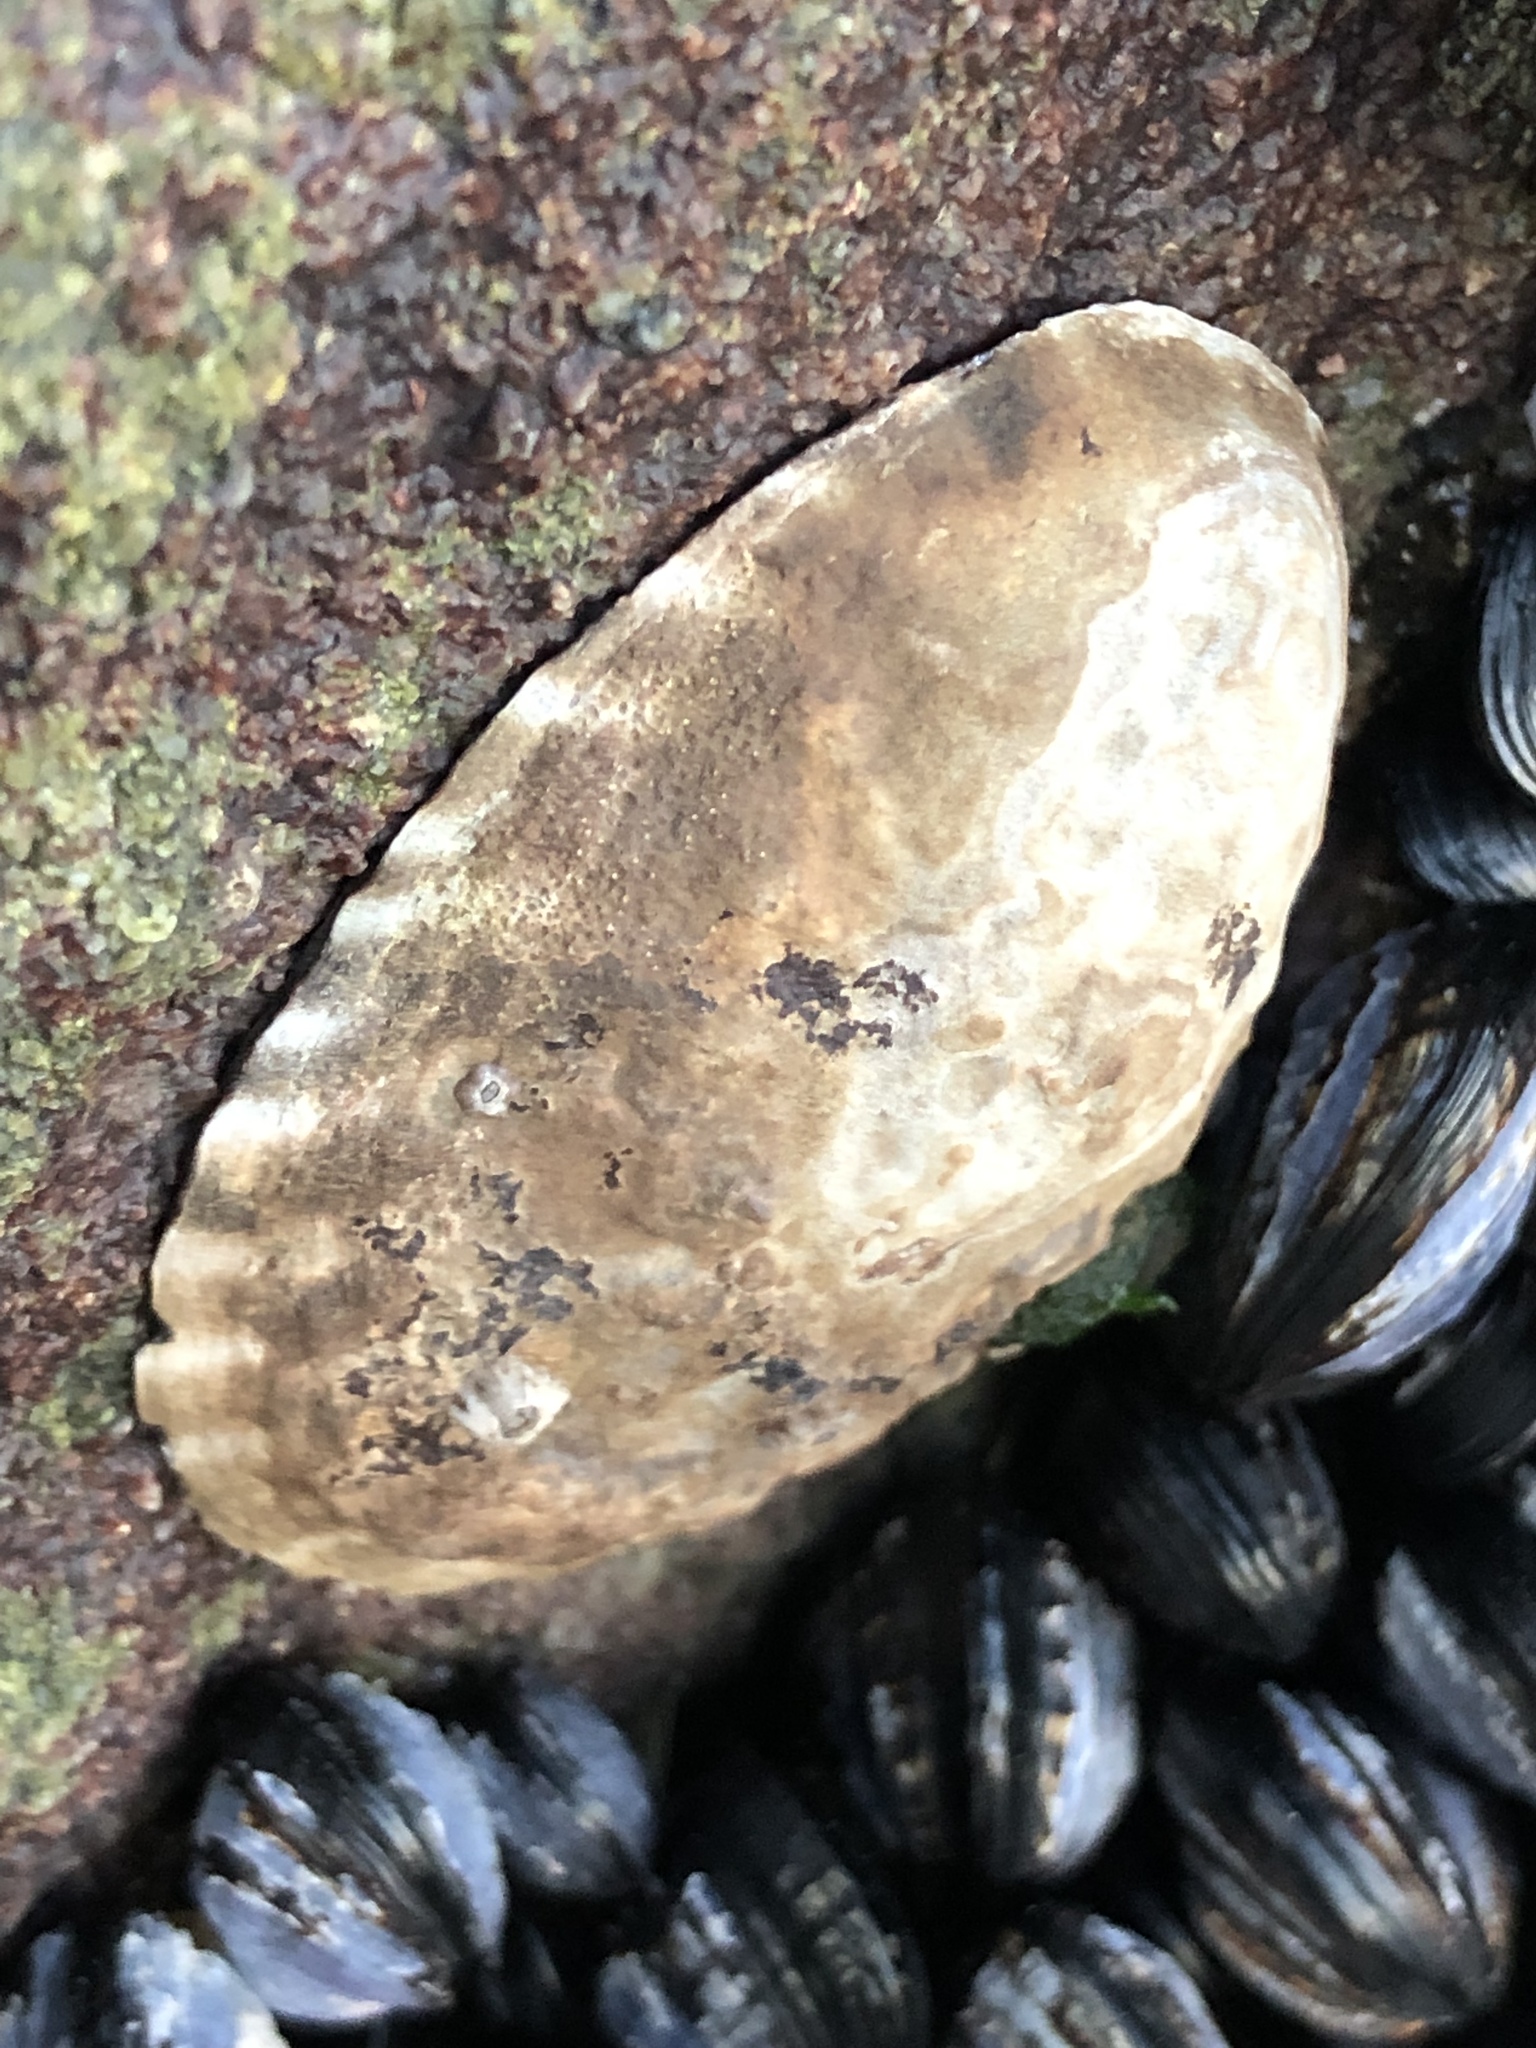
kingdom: Animalia
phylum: Mollusca
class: Gastropoda
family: Lottiidae
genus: Lottia
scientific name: Lottia gigantea
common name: Owl limpet
